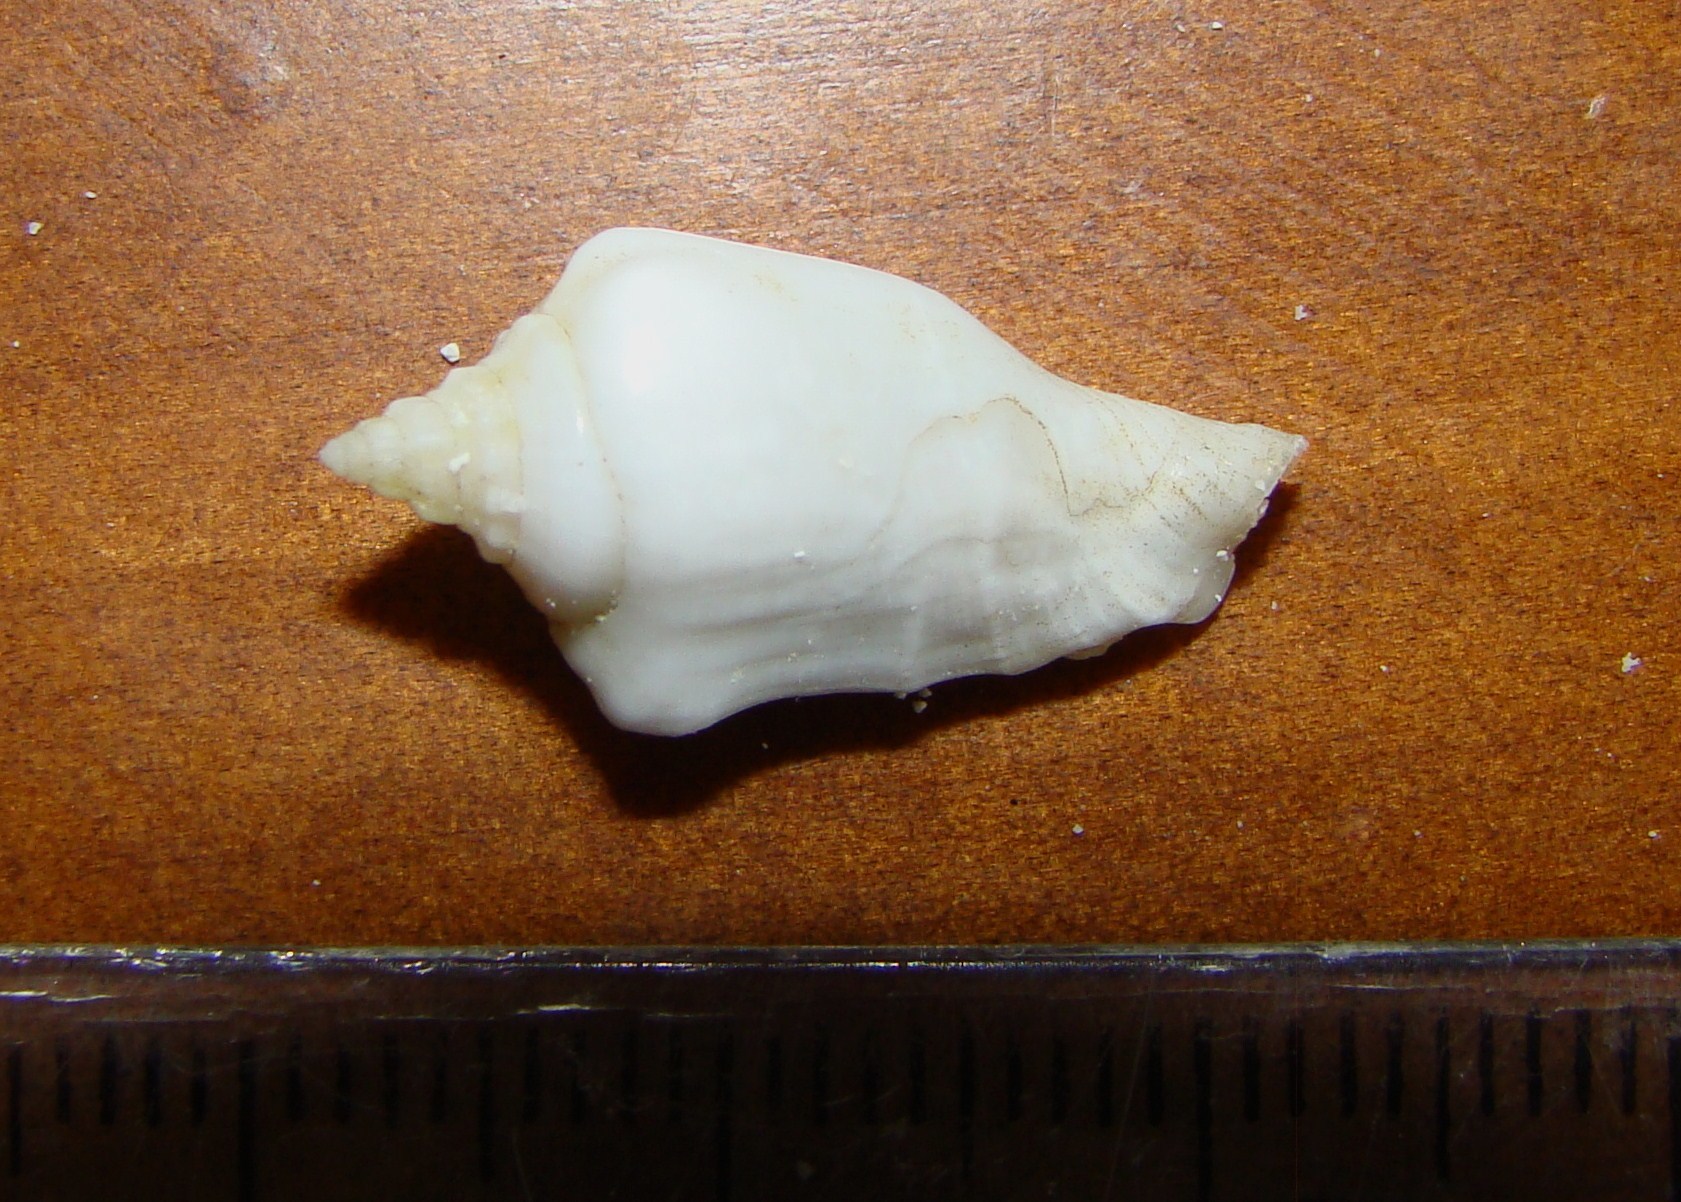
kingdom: Animalia
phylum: Mollusca
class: Gastropoda
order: Littorinimorpha
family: Strombidae
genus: Canarium
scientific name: Canarium mutabile
